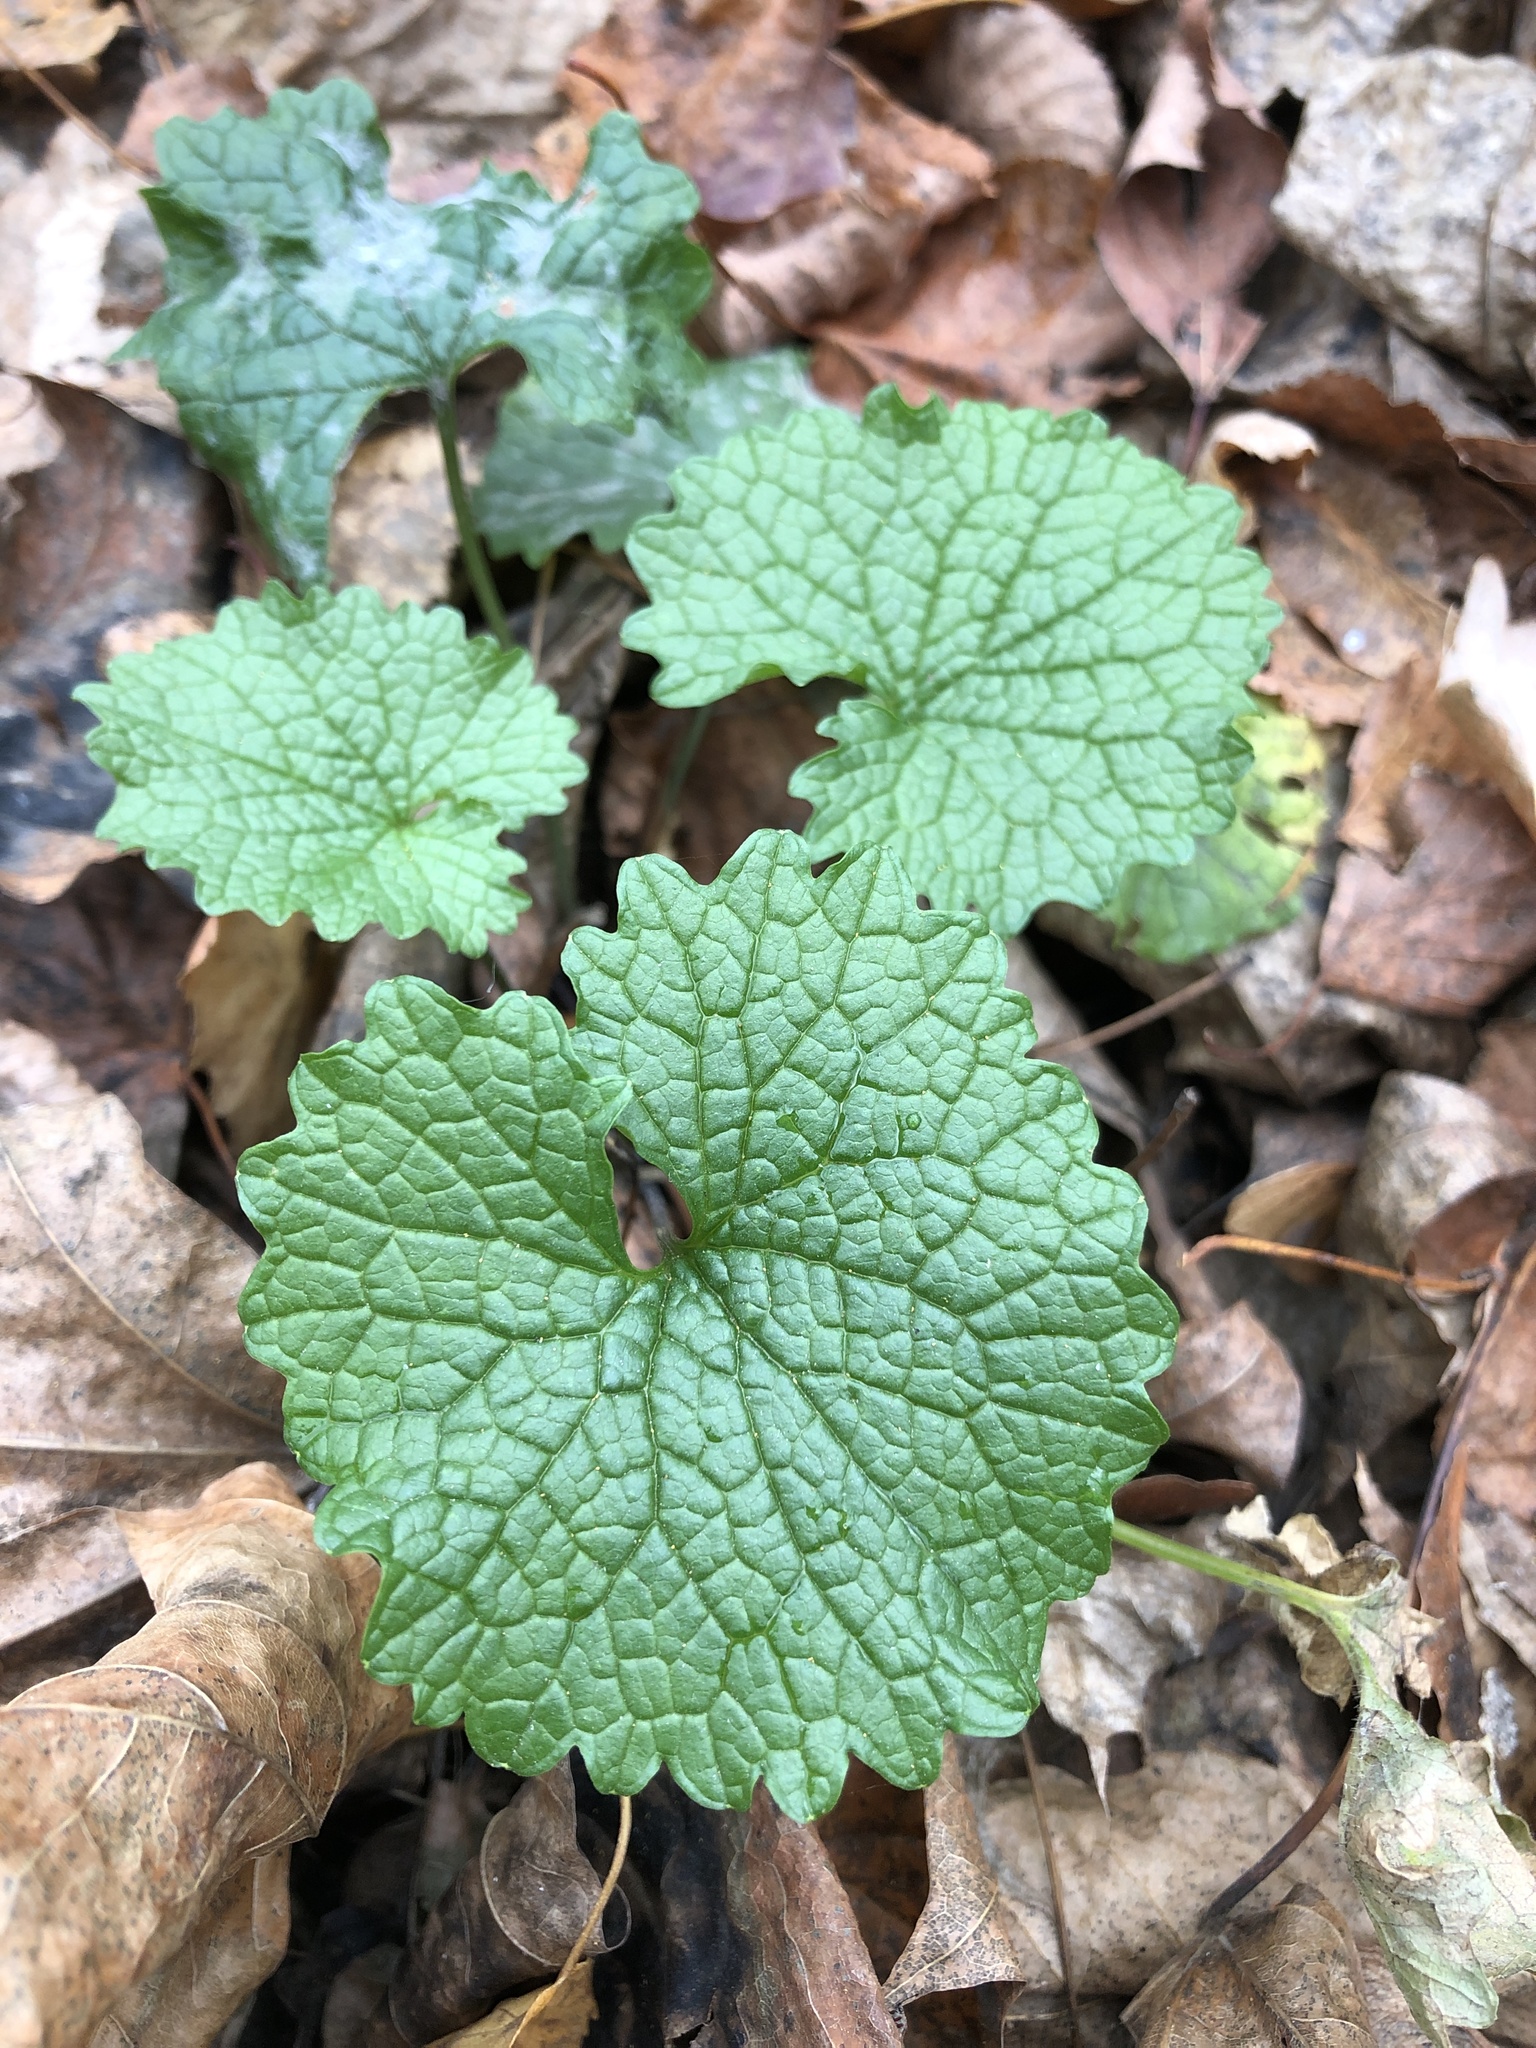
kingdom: Plantae
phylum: Tracheophyta
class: Magnoliopsida
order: Brassicales
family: Brassicaceae
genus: Alliaria
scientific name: Alliaria petiolata
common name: Garlic mustard
